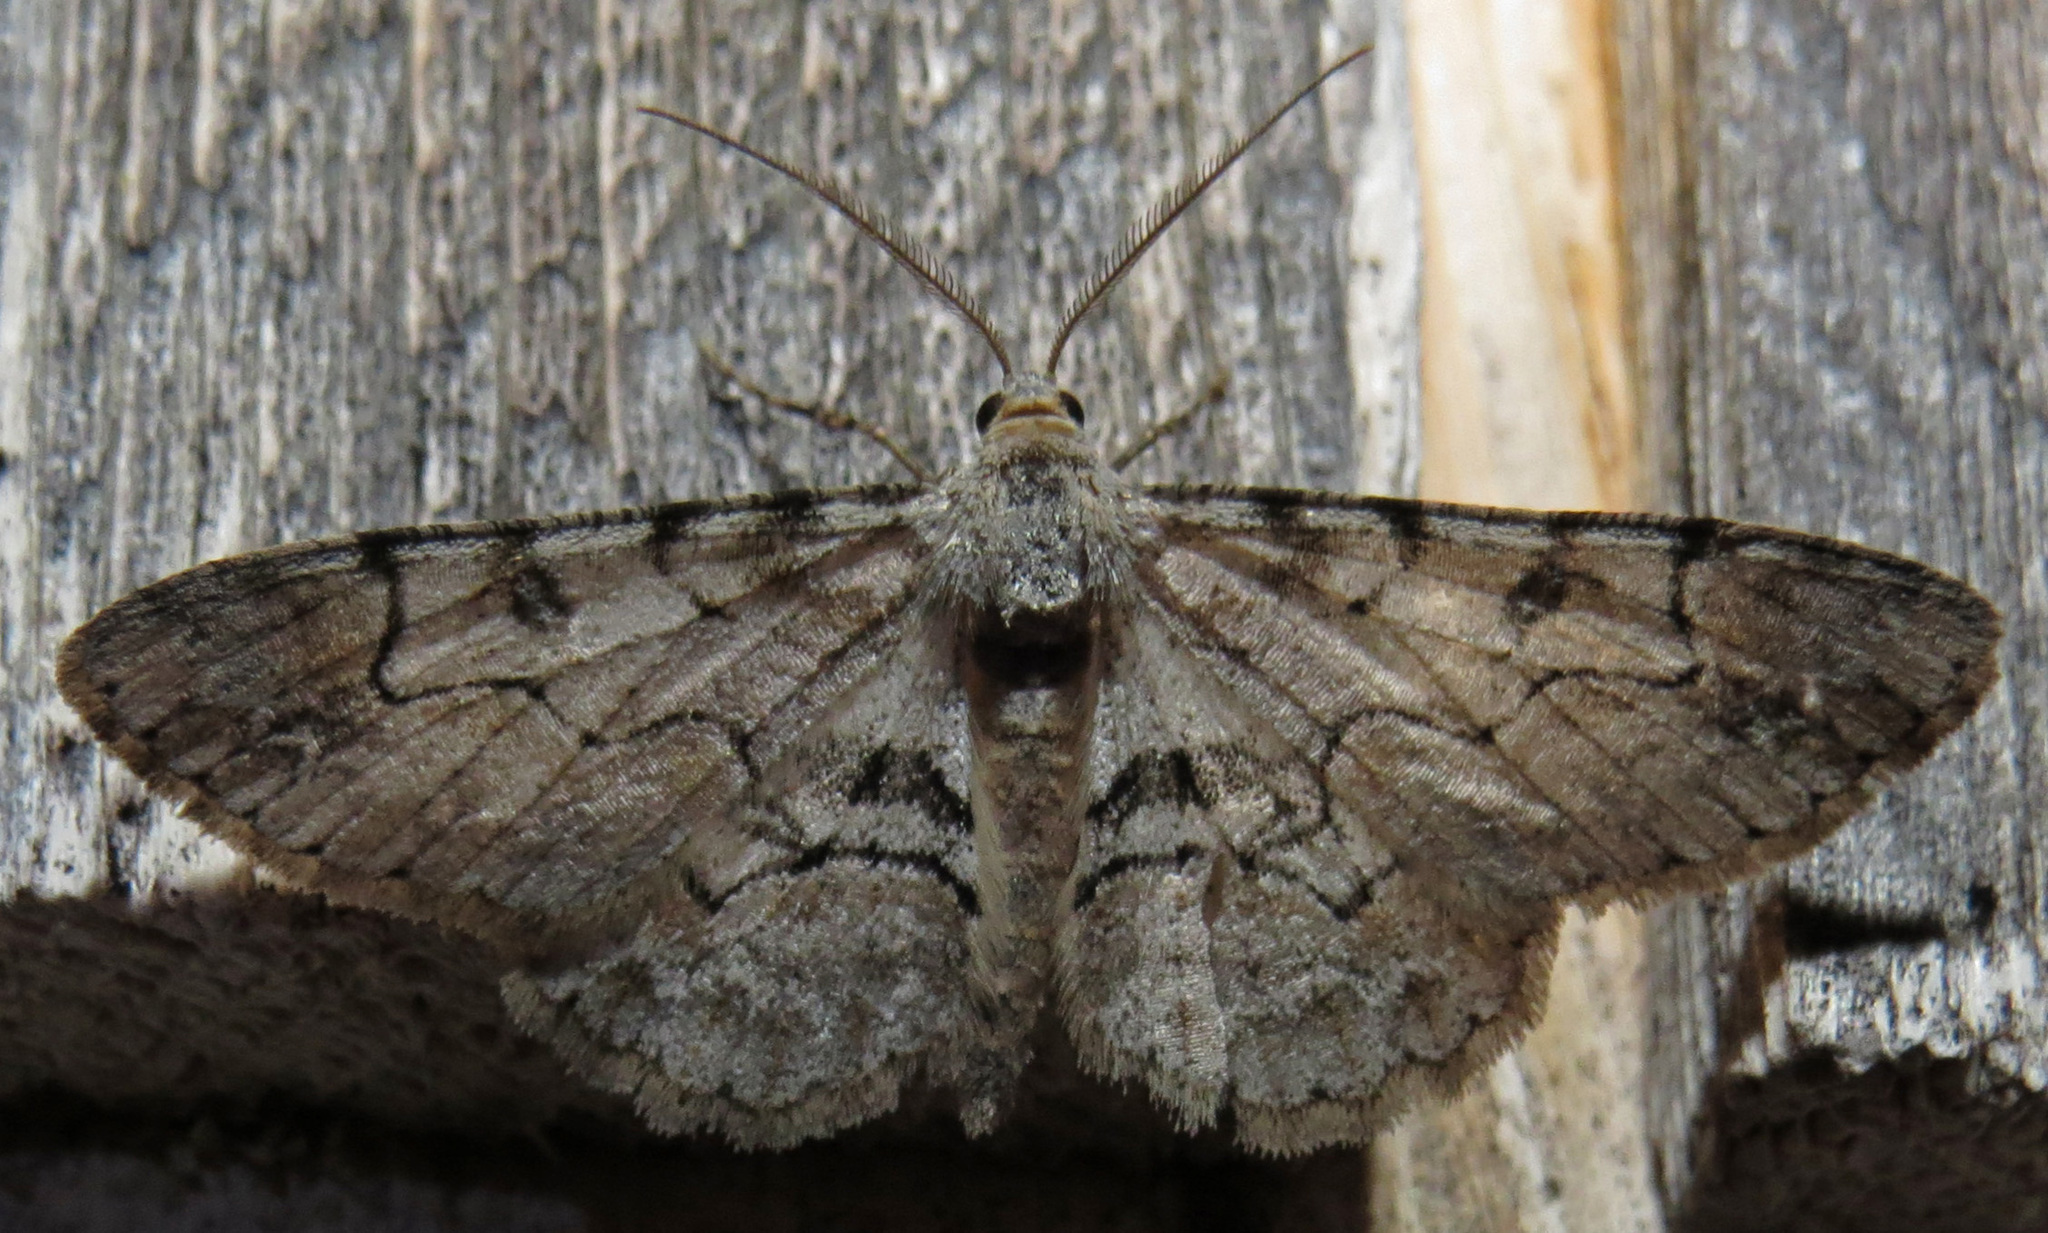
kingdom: Animalia
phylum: Arthropoda
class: Insecta
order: Lepidoptera
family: Geometridae
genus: Iridopsis
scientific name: Iridopsis larvaria
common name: Bent-line gray
